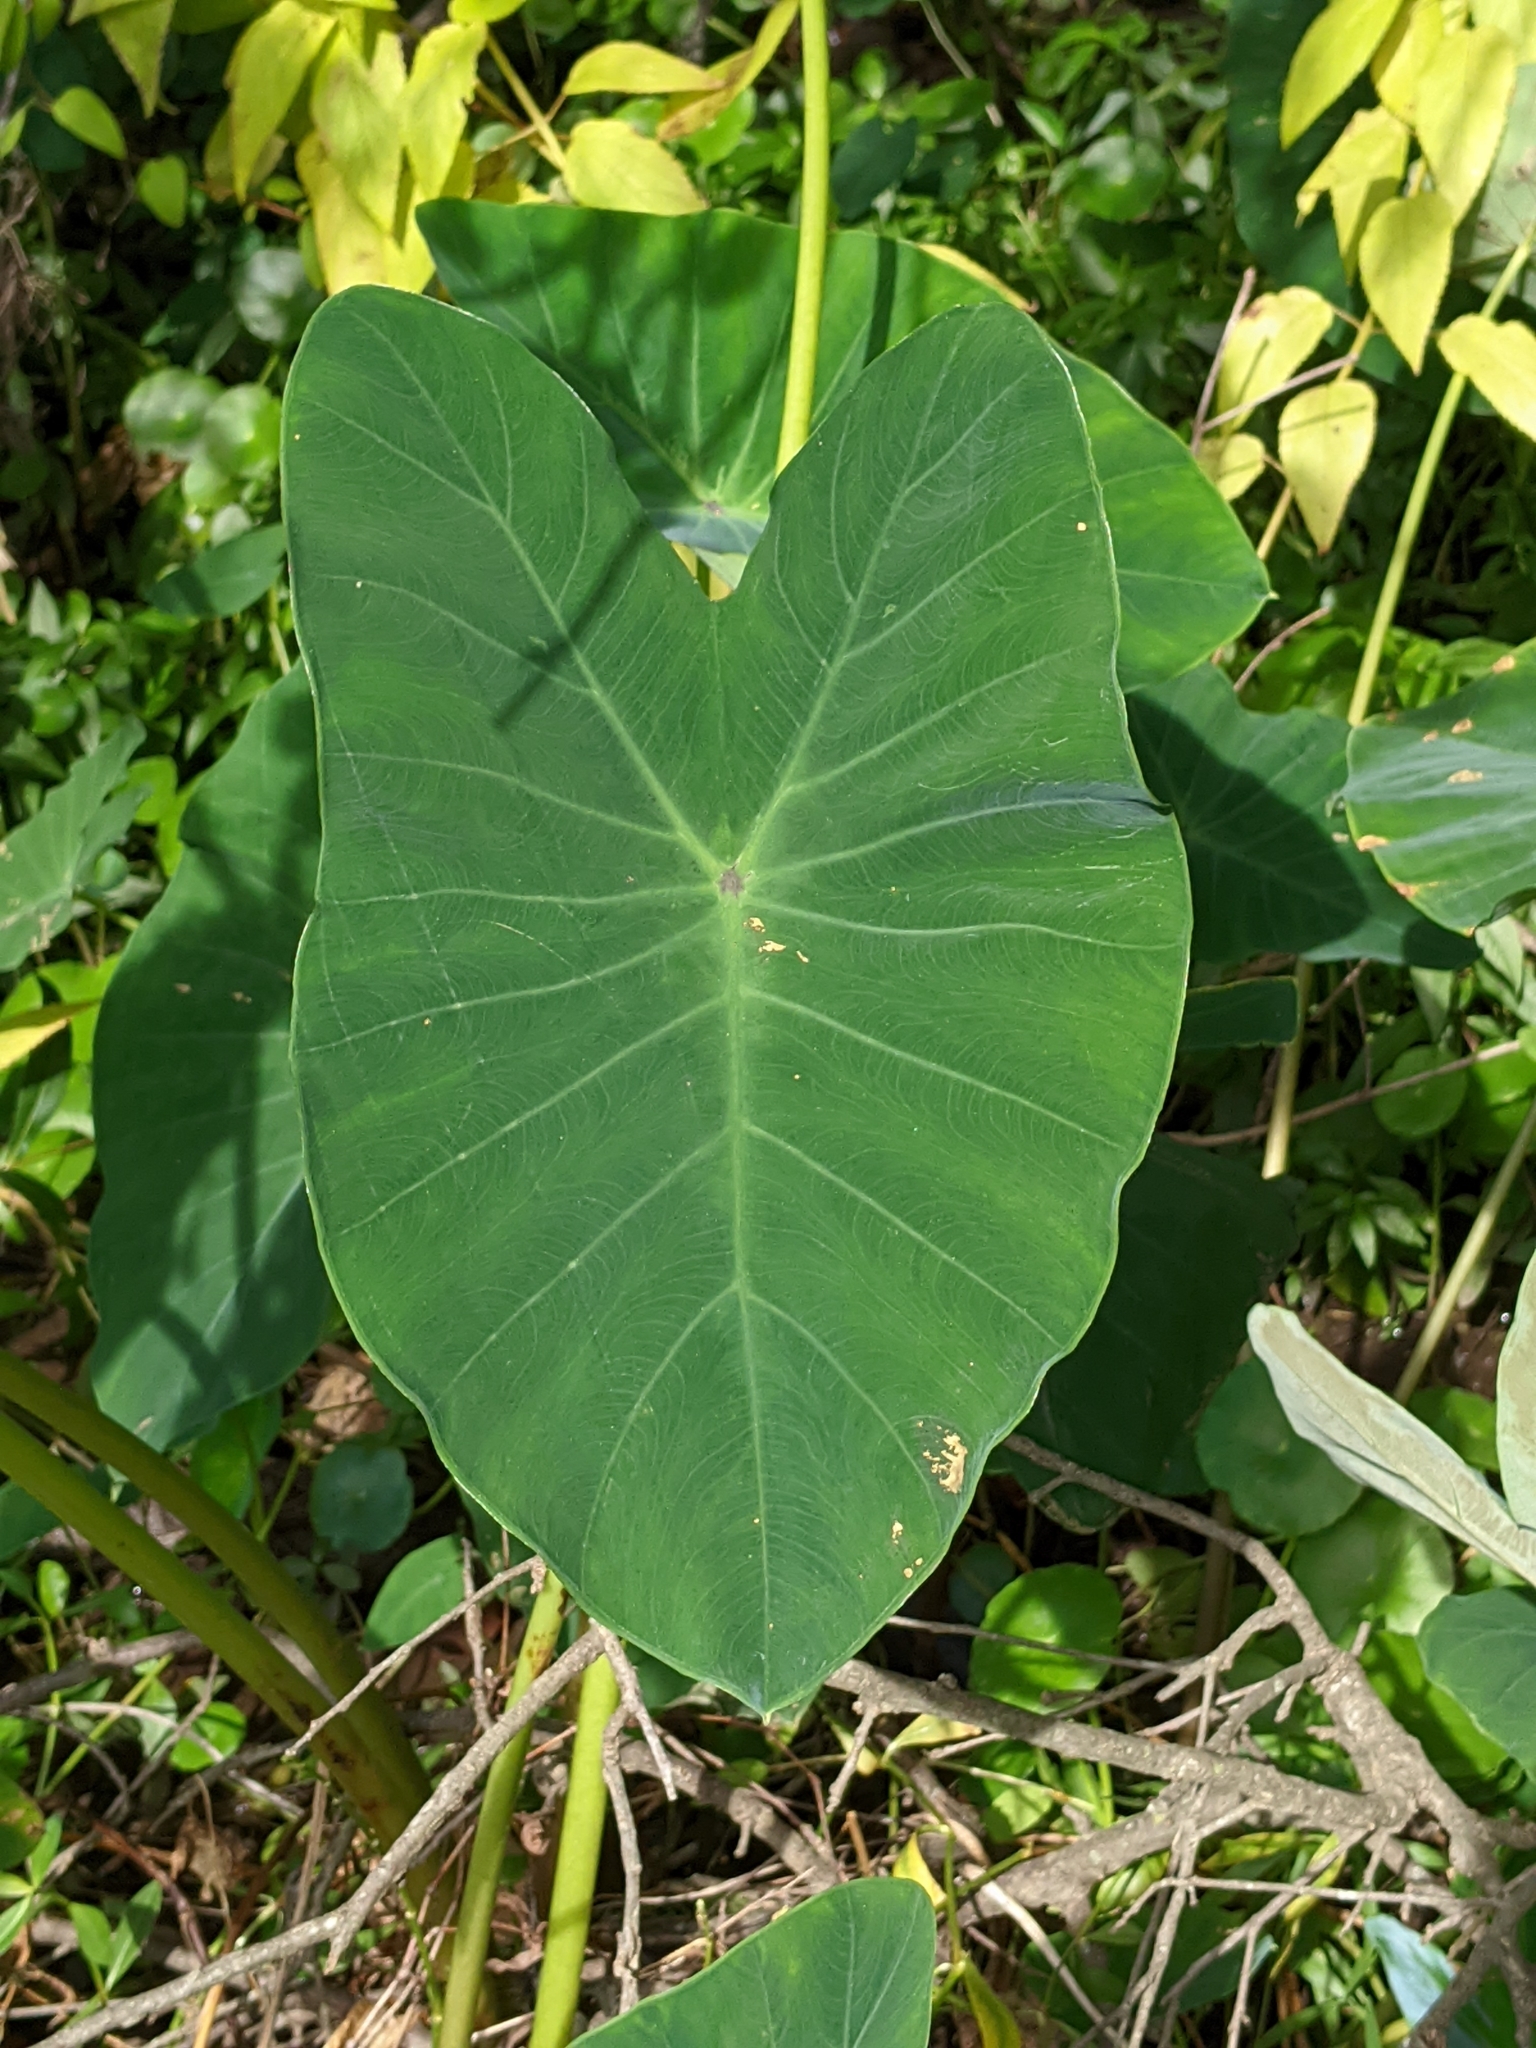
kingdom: Plantae
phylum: Tracheophyta
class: Liliopsida
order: Alismatales
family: Araceae
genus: Colocasia
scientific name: Colocasia esculenta
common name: Taro
